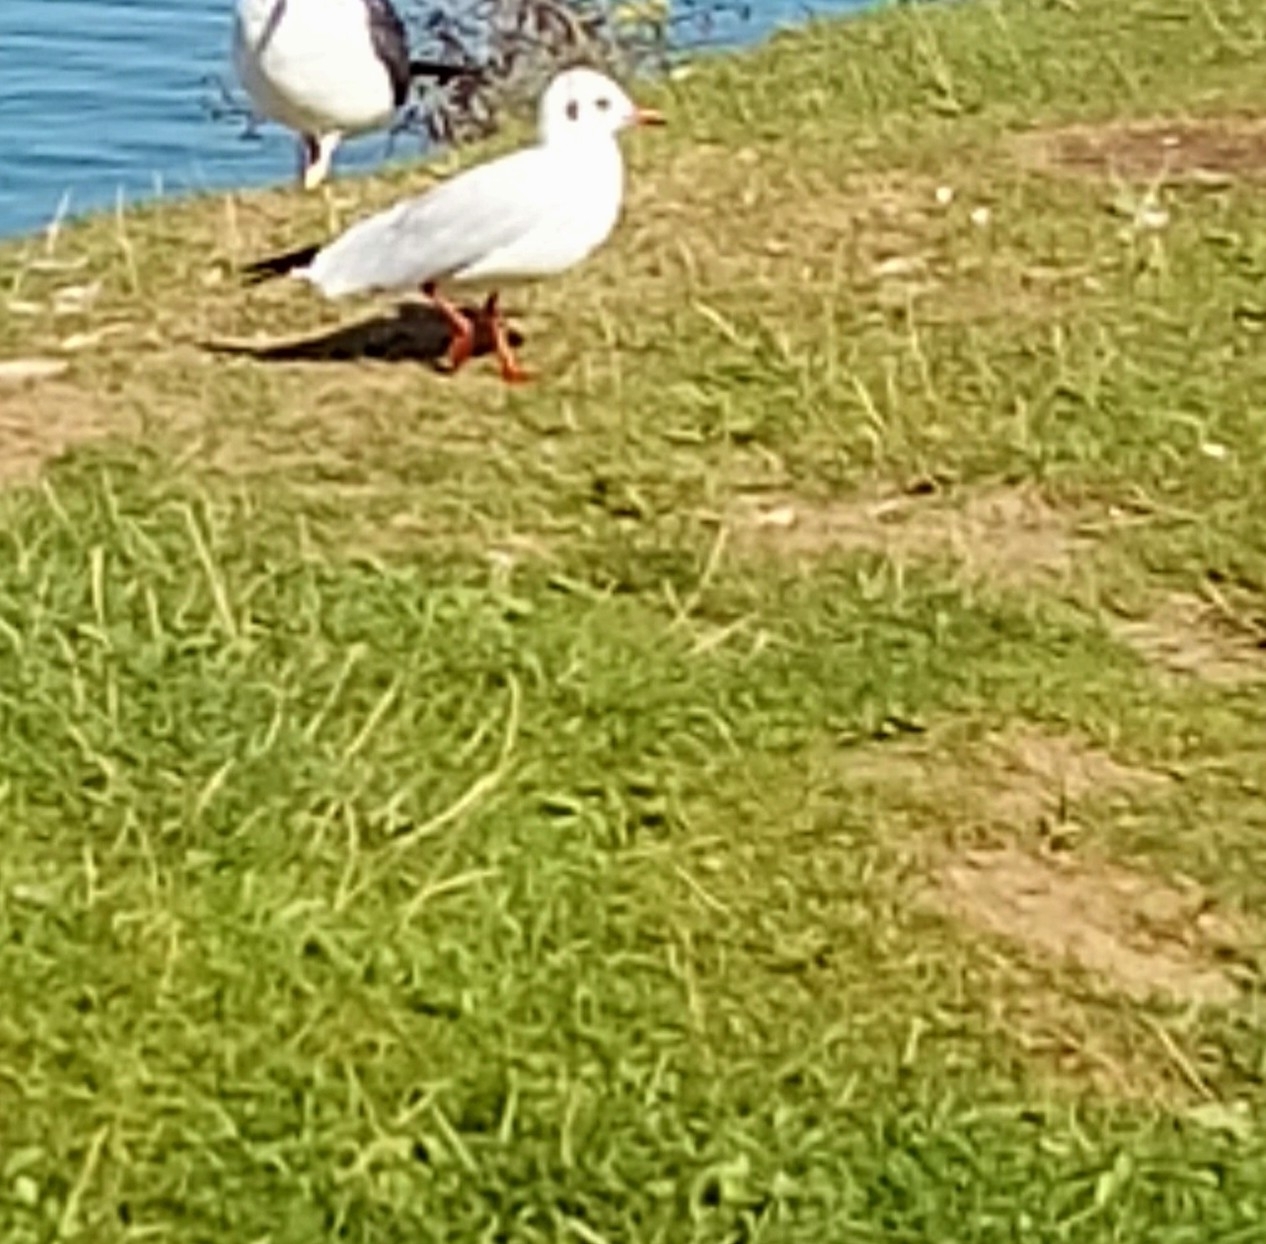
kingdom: Animalia
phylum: Chordata
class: Aves
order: Charadriiformes
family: Laridae
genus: Chroicocephalus
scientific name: Chroicocephalus ridibundus
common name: Black-headed gull
